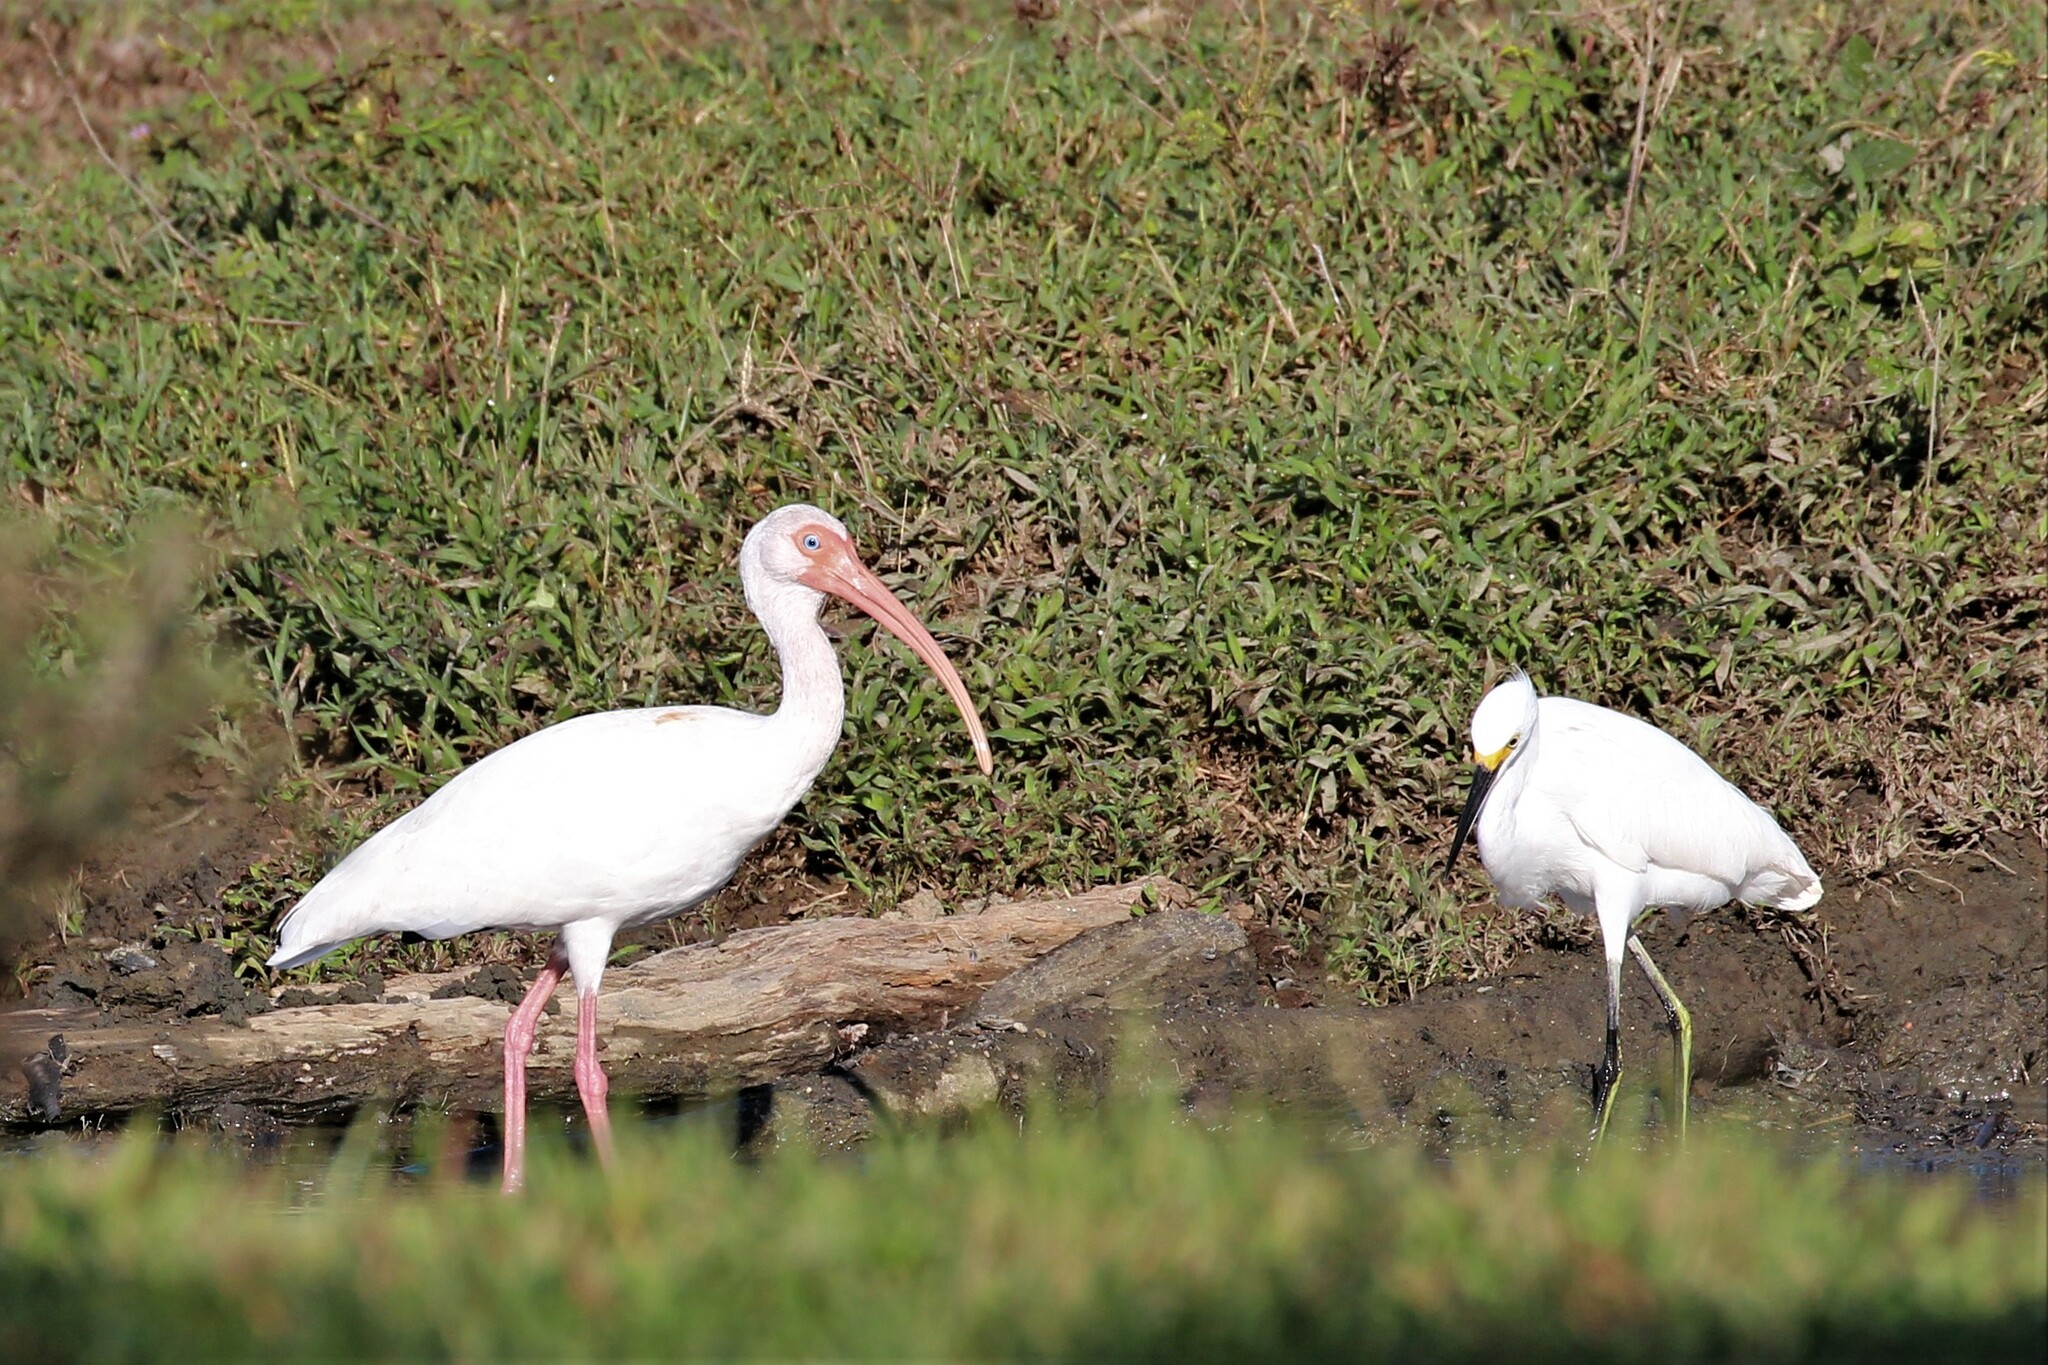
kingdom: Animalia
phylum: Chordata
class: Aves
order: Pelecaniformes
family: Ardeidae
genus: Egretta
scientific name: Egretta thula
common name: Snowy egret
